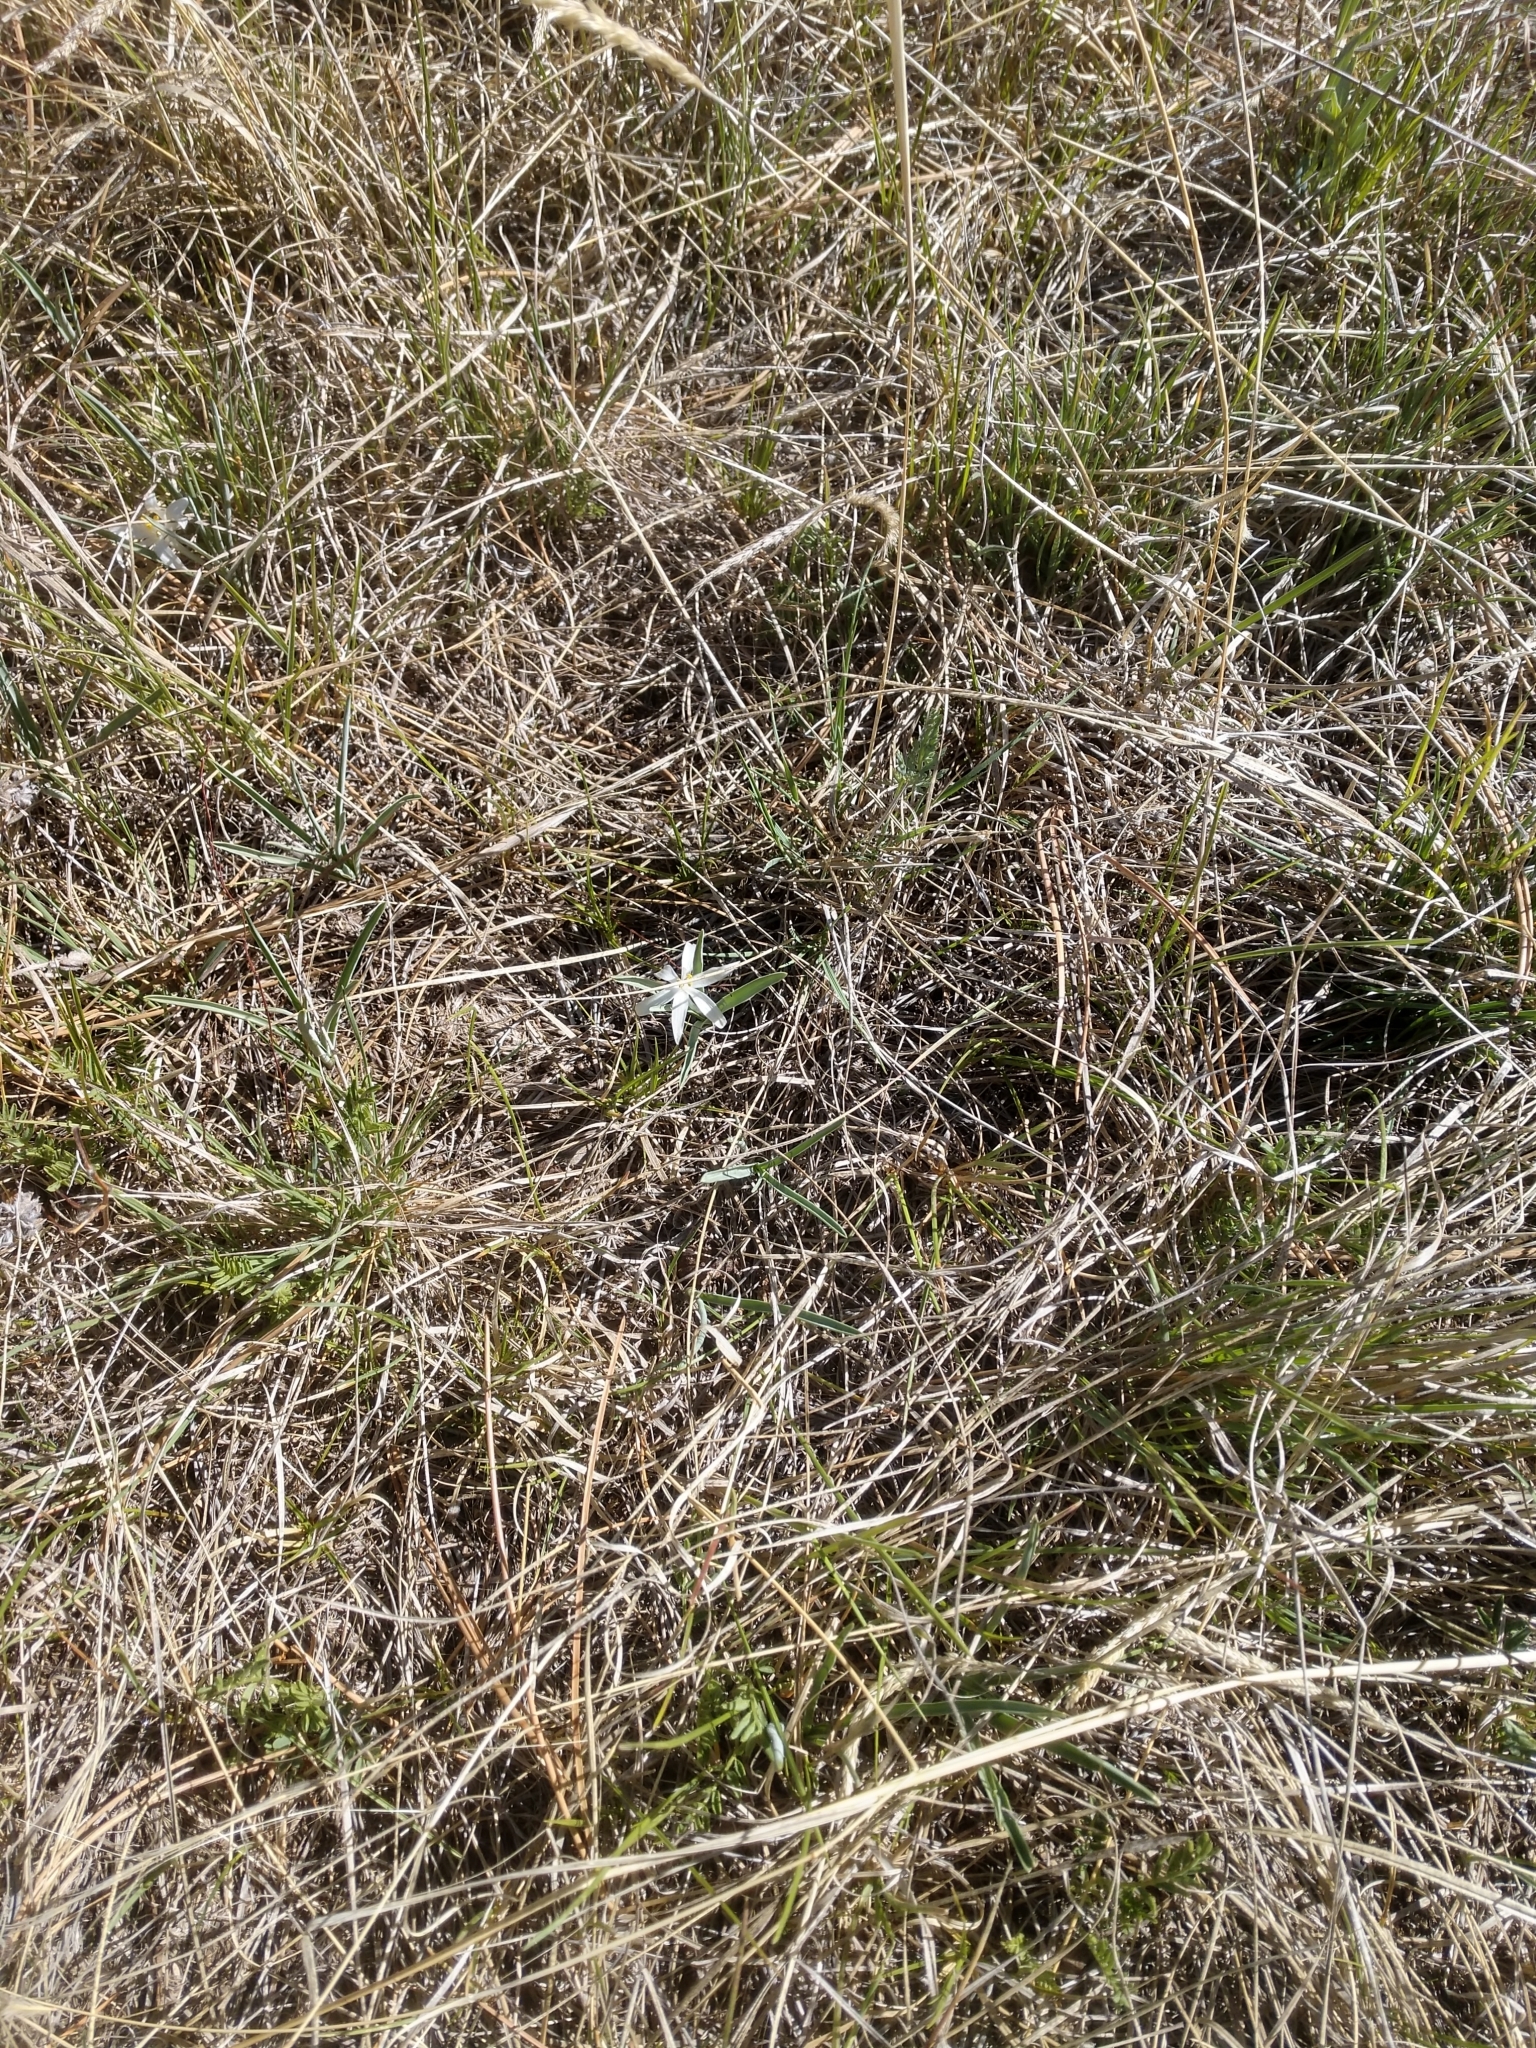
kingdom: Plantae
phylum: Tracheophyta
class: Liliopsida
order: Asparagales
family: Asparagaceae
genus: Leucocrinum
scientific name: Leucocrinum montanum
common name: Mountain-lily
